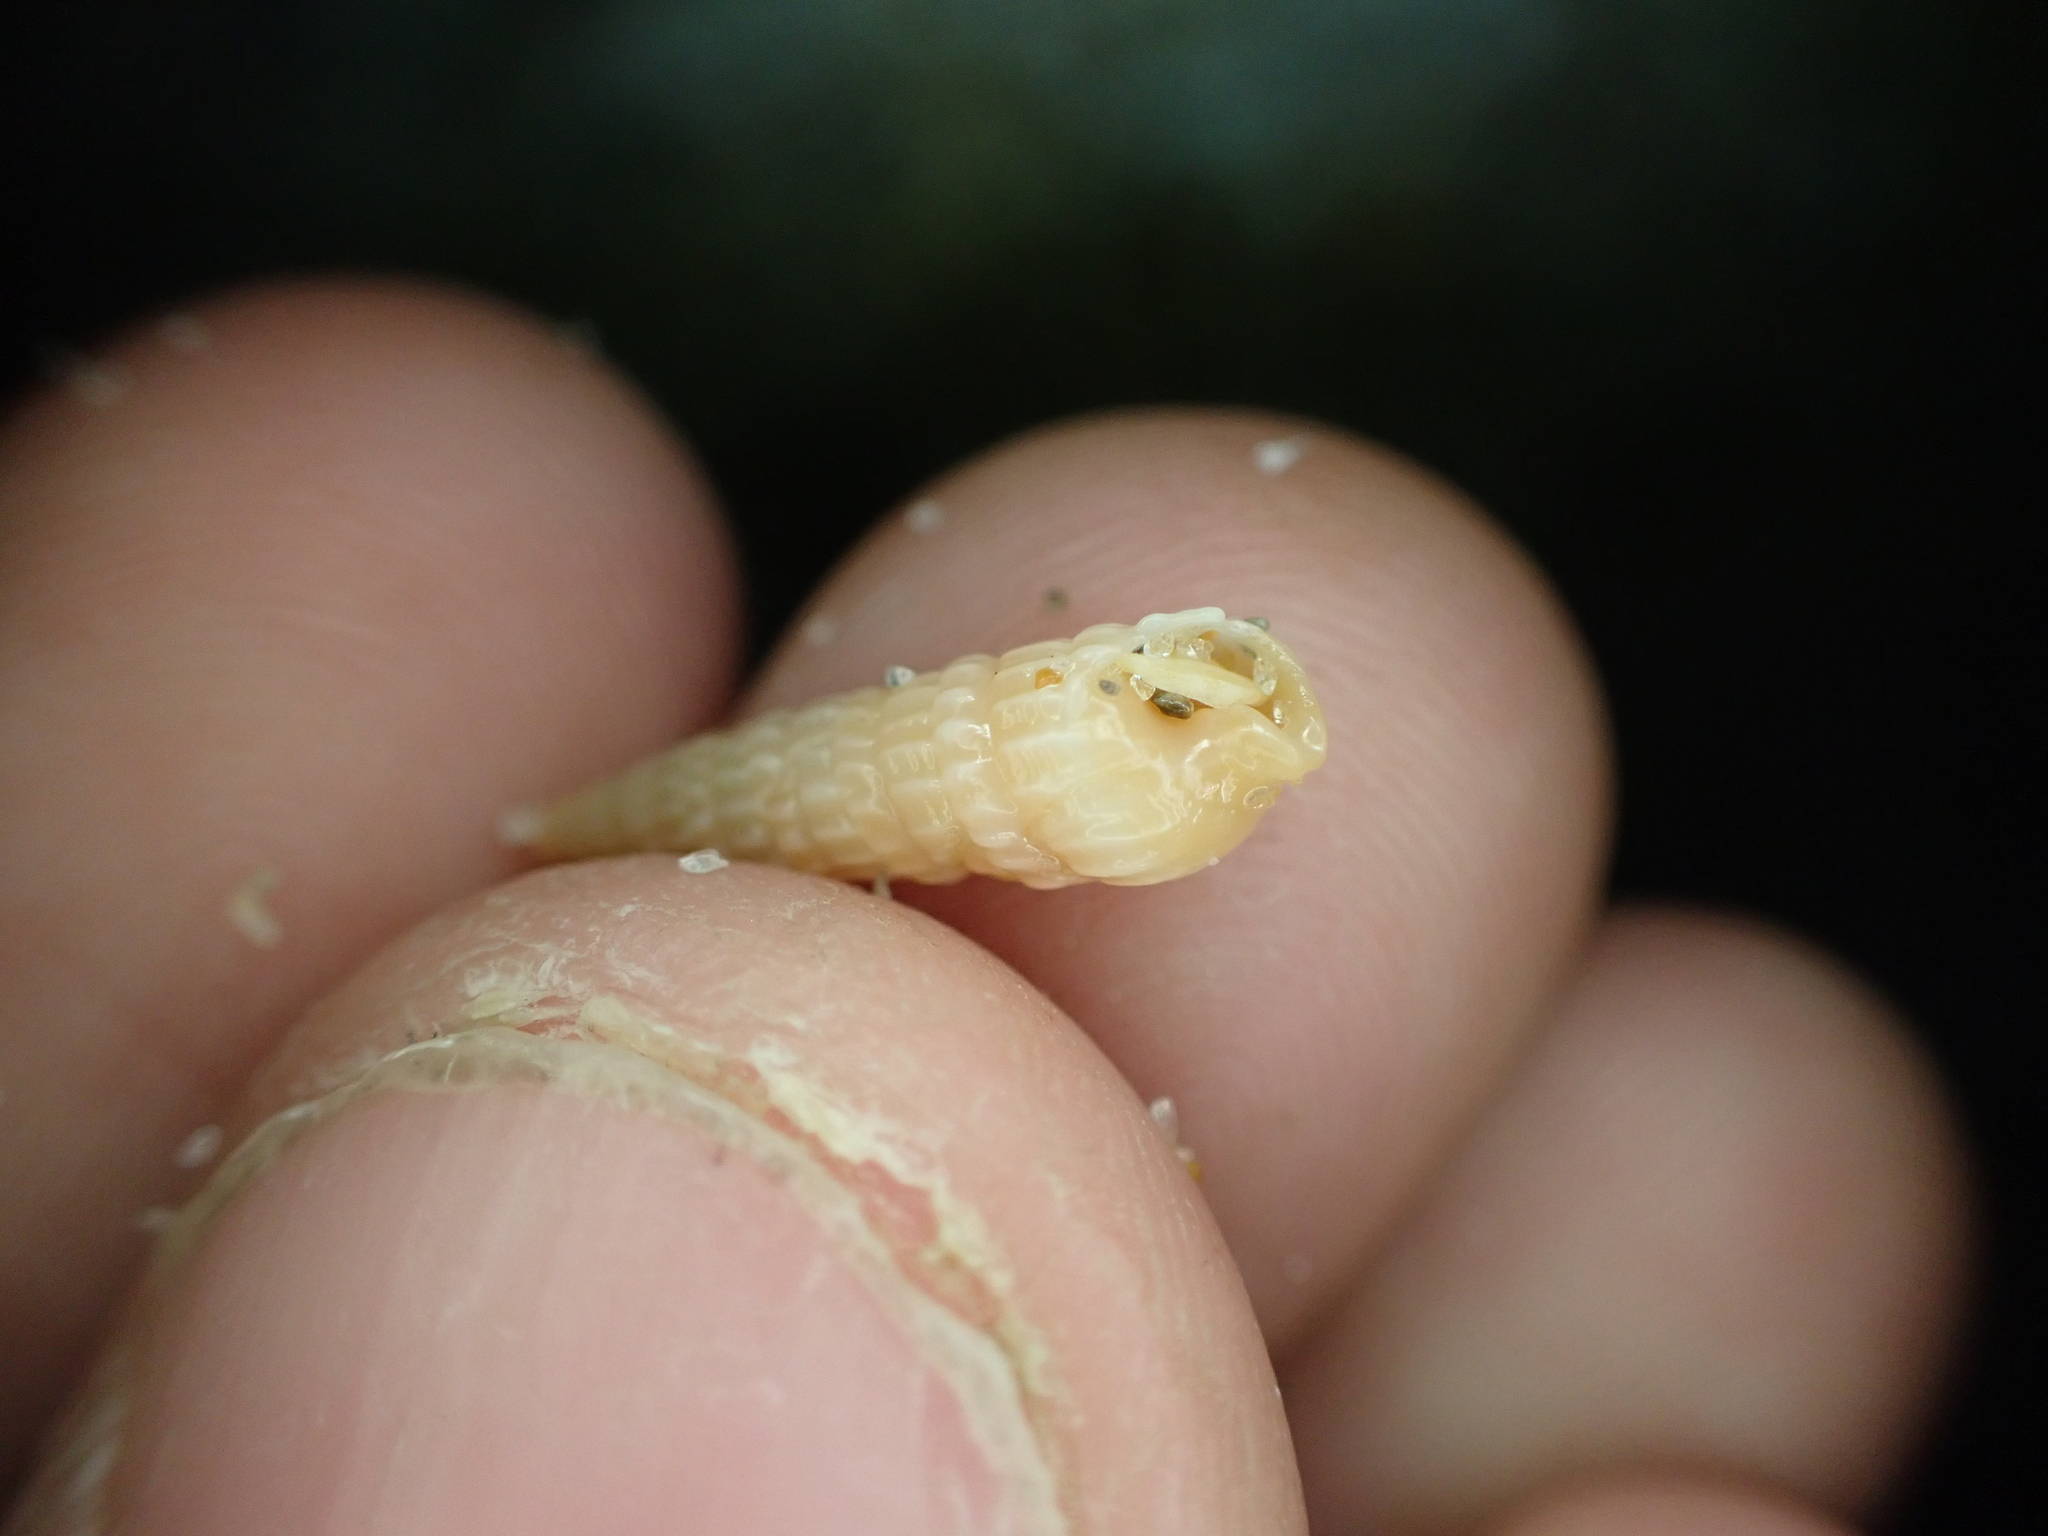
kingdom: Animalia
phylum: Mollusca
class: Gastropoda
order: Neogastropoda
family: Terebridae
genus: Neoterebra
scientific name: Neoterebra dislocata
